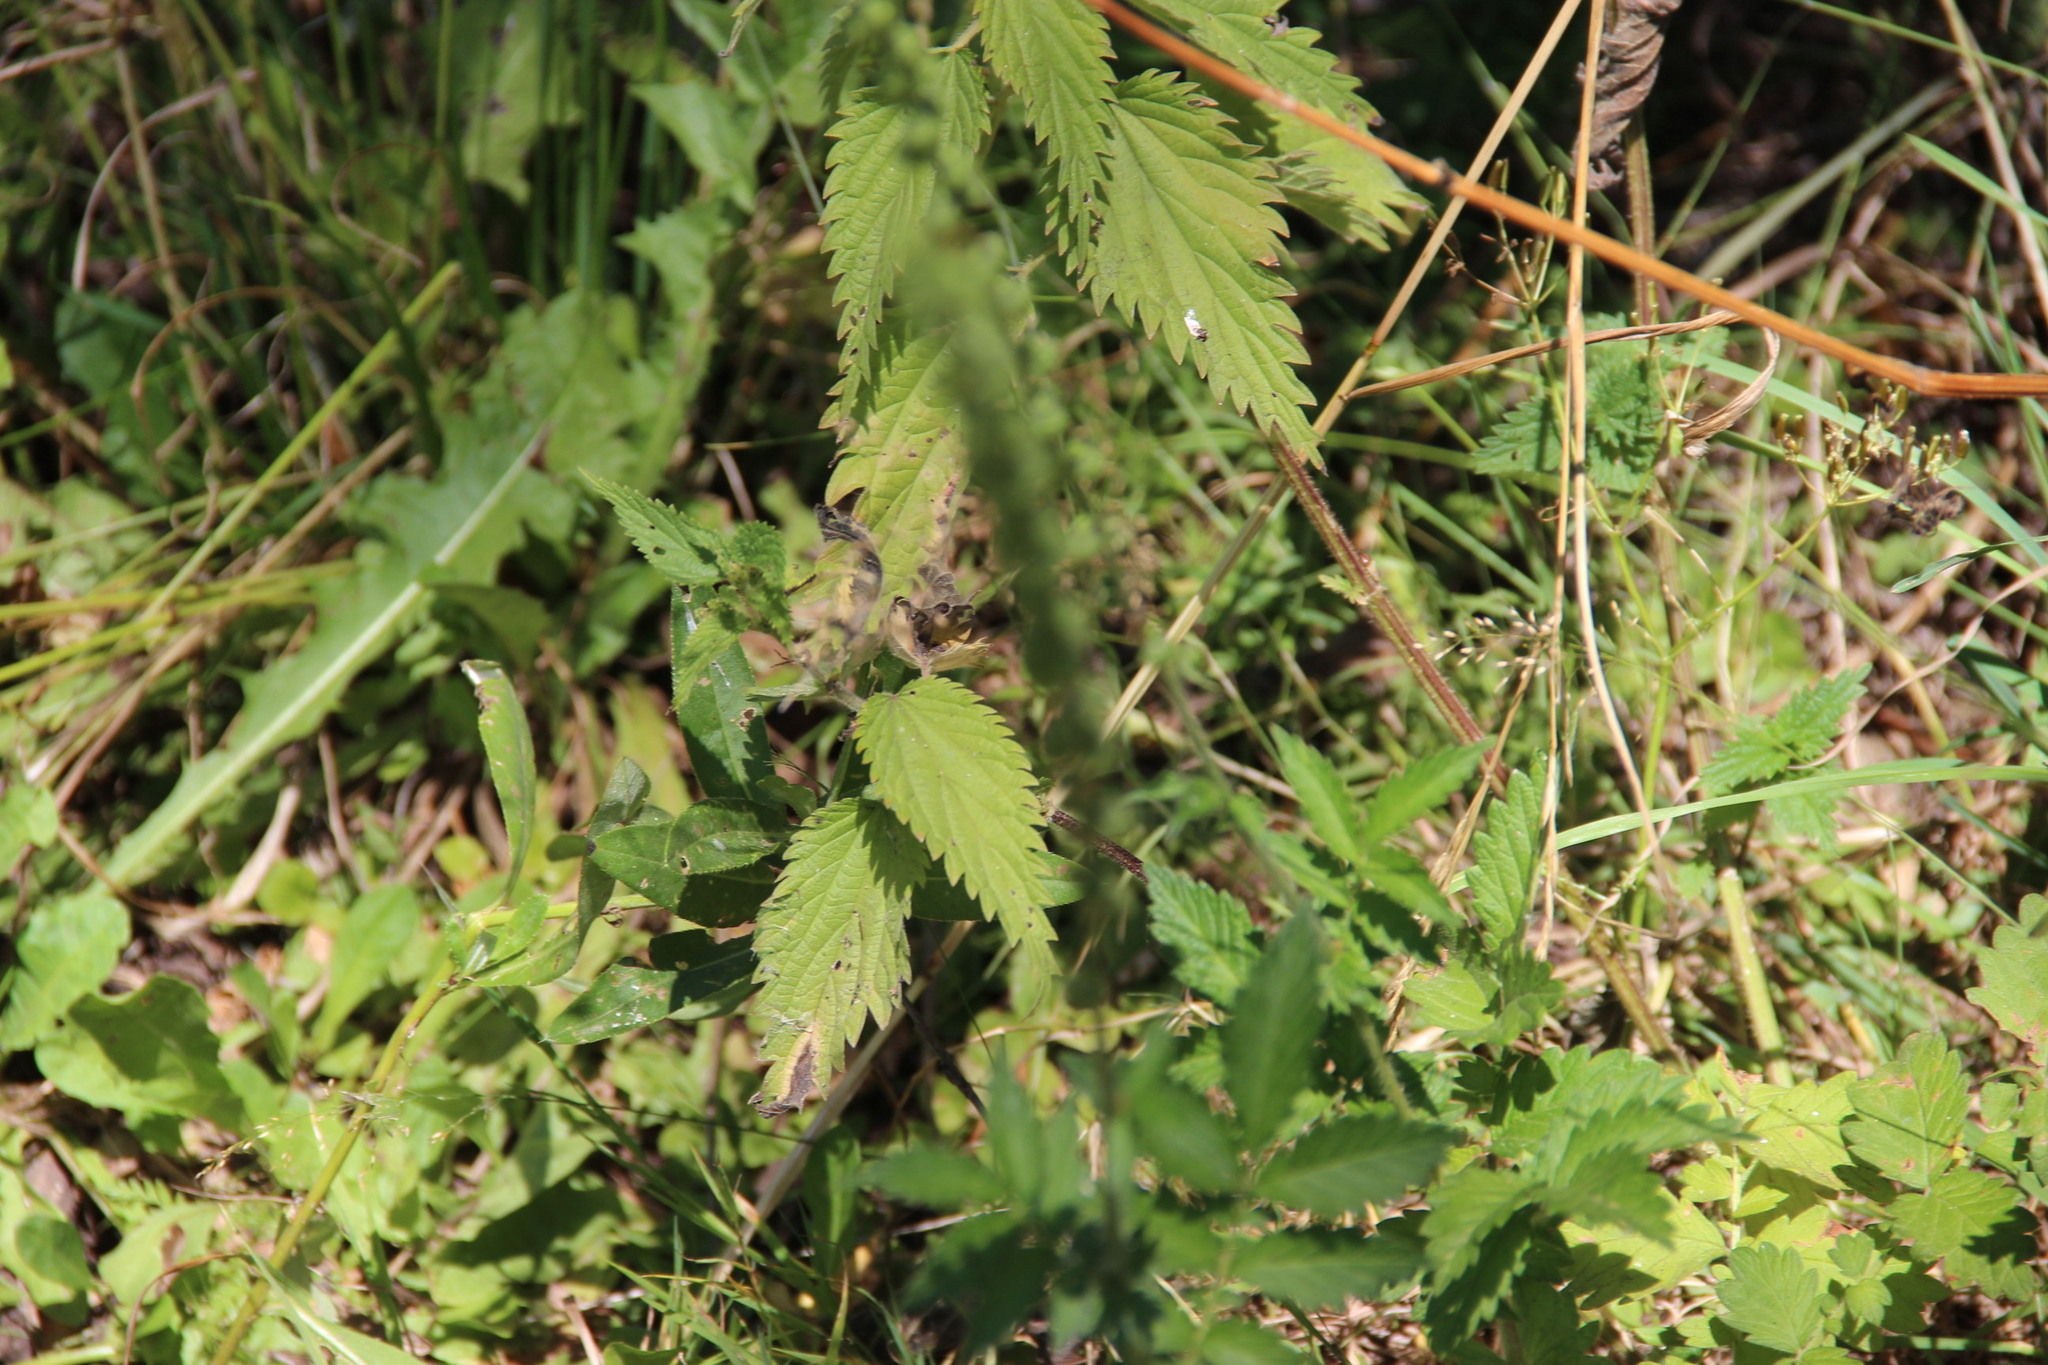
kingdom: Plantae
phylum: Tracheophyta
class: Magnoliopsida
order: Rosales
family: Urticaceae
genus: Urtica
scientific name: Urtica dioica
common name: Common nettle
